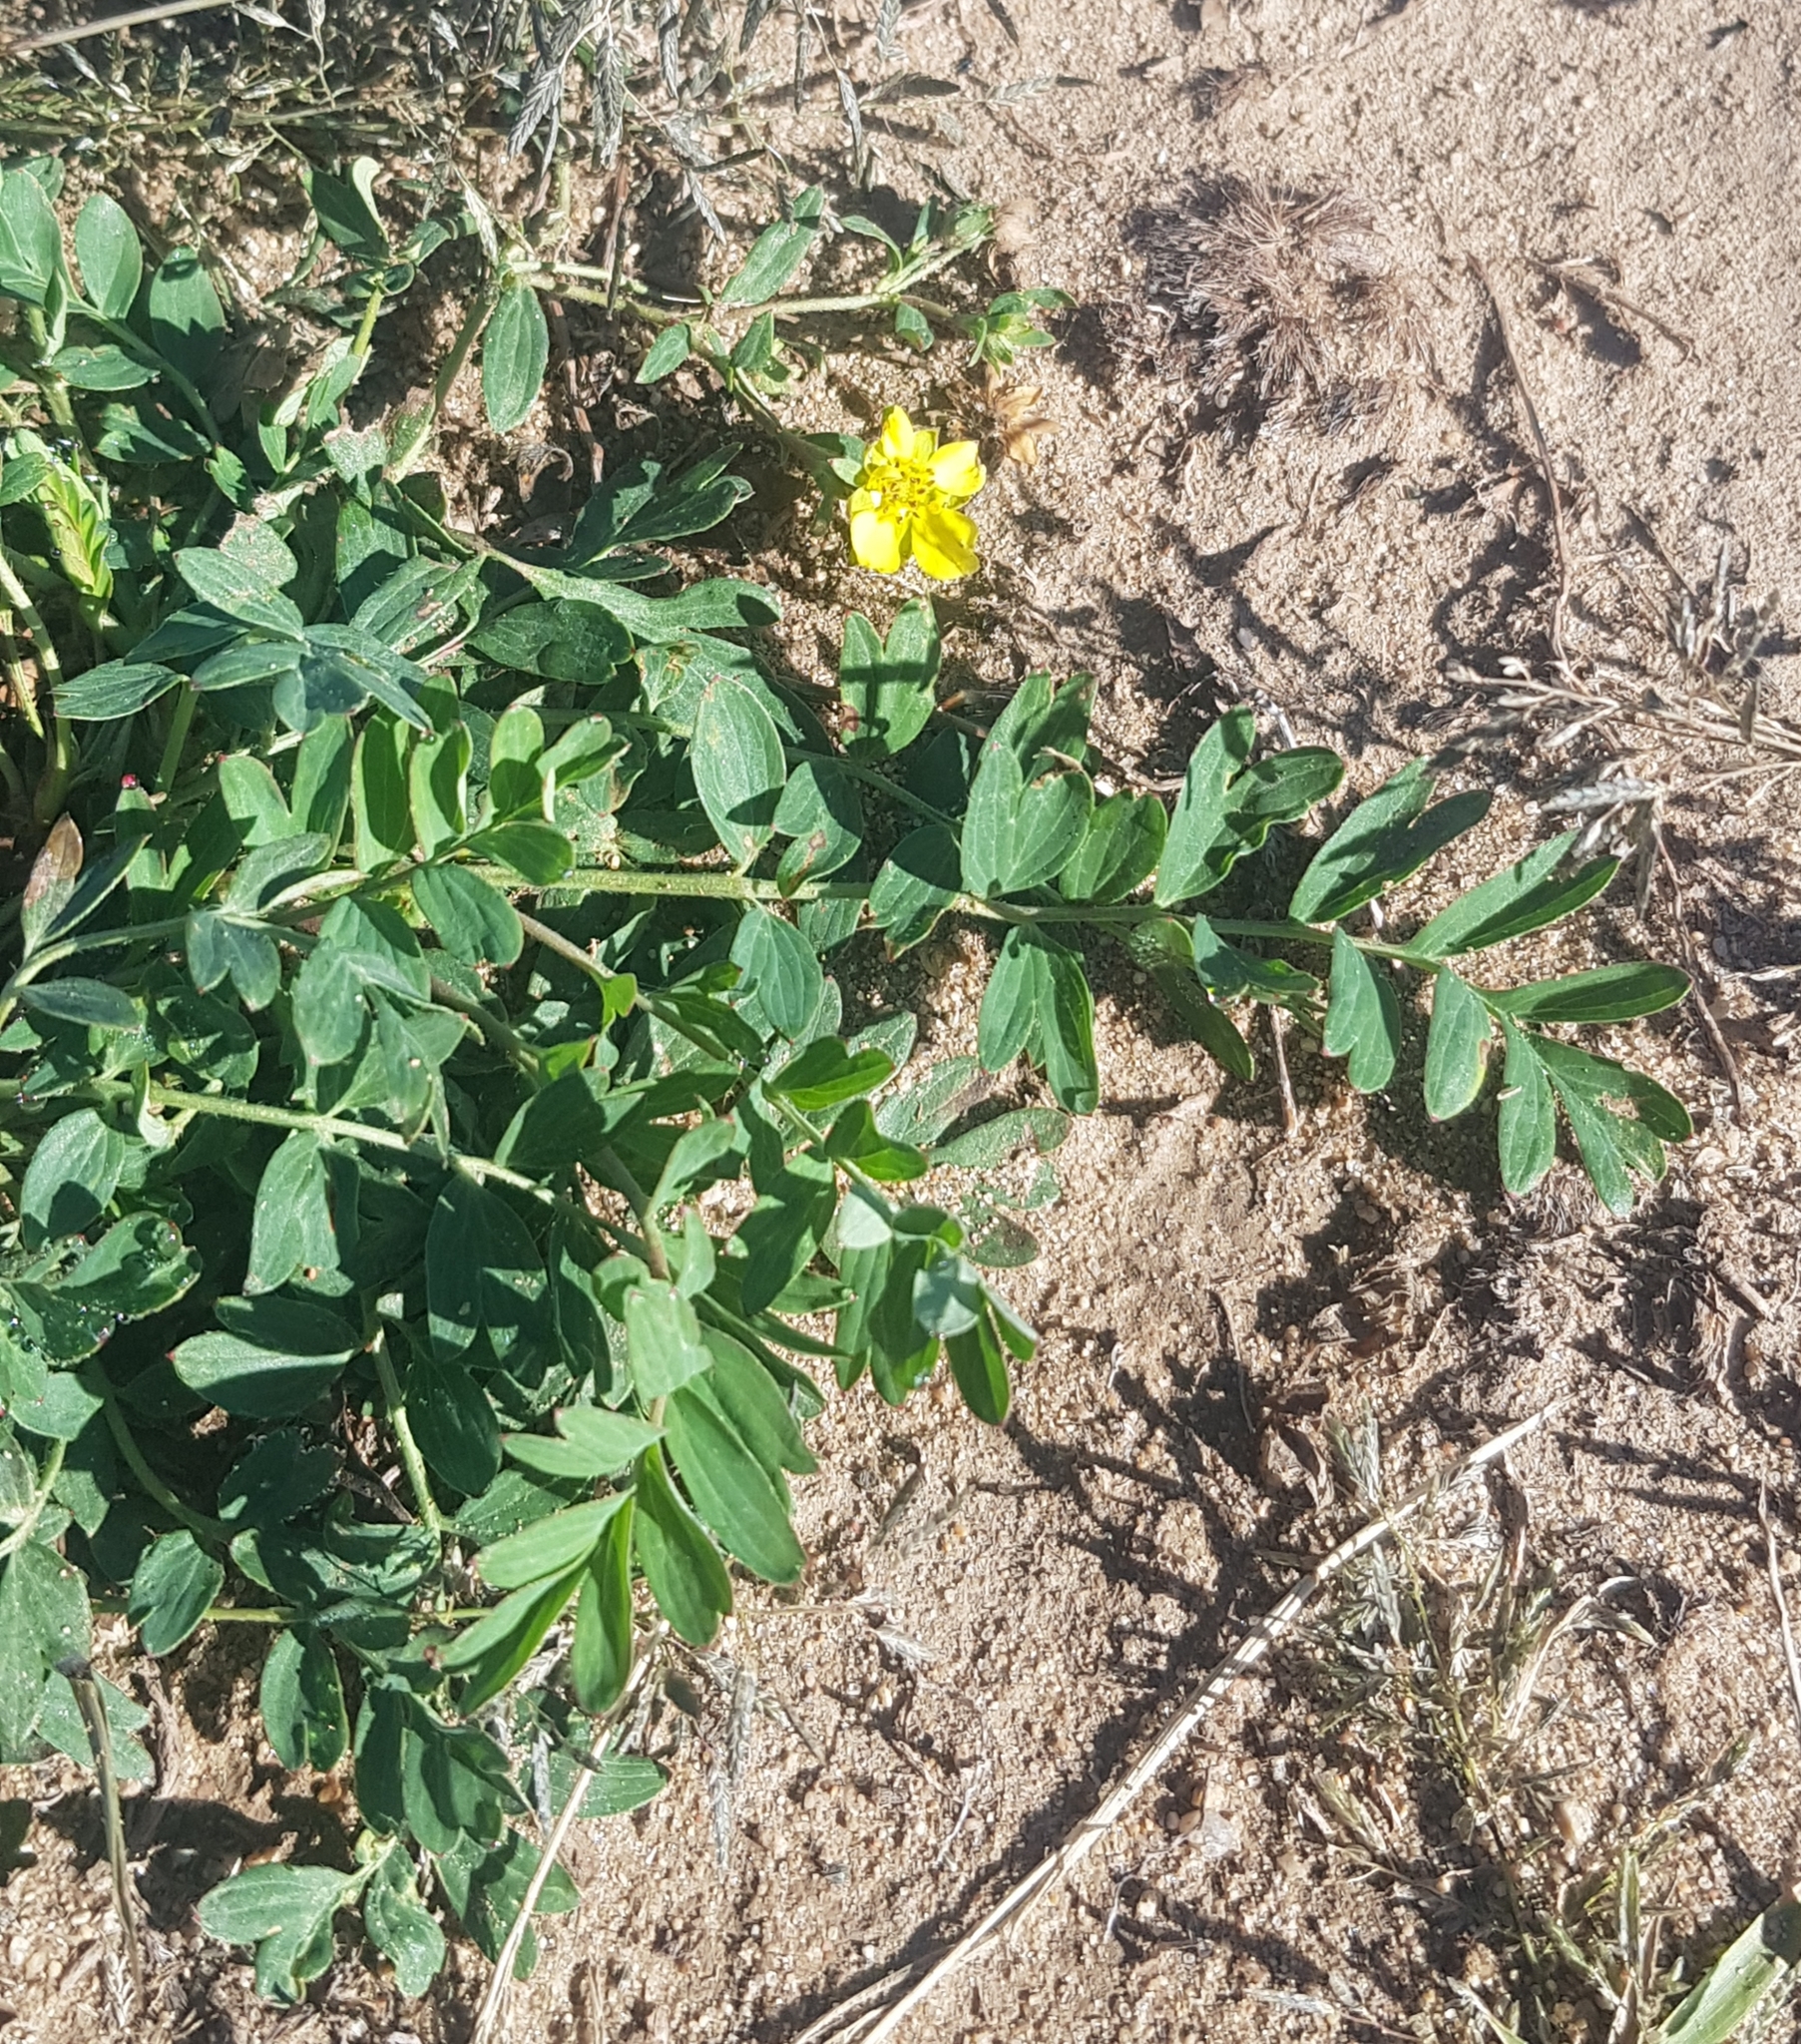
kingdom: Plantae
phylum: Tracheophyta
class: Magnoliopsida
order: Rosales
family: Rosaceae
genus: Sibbaldianthe
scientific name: Sibbaldianthe bifurca
